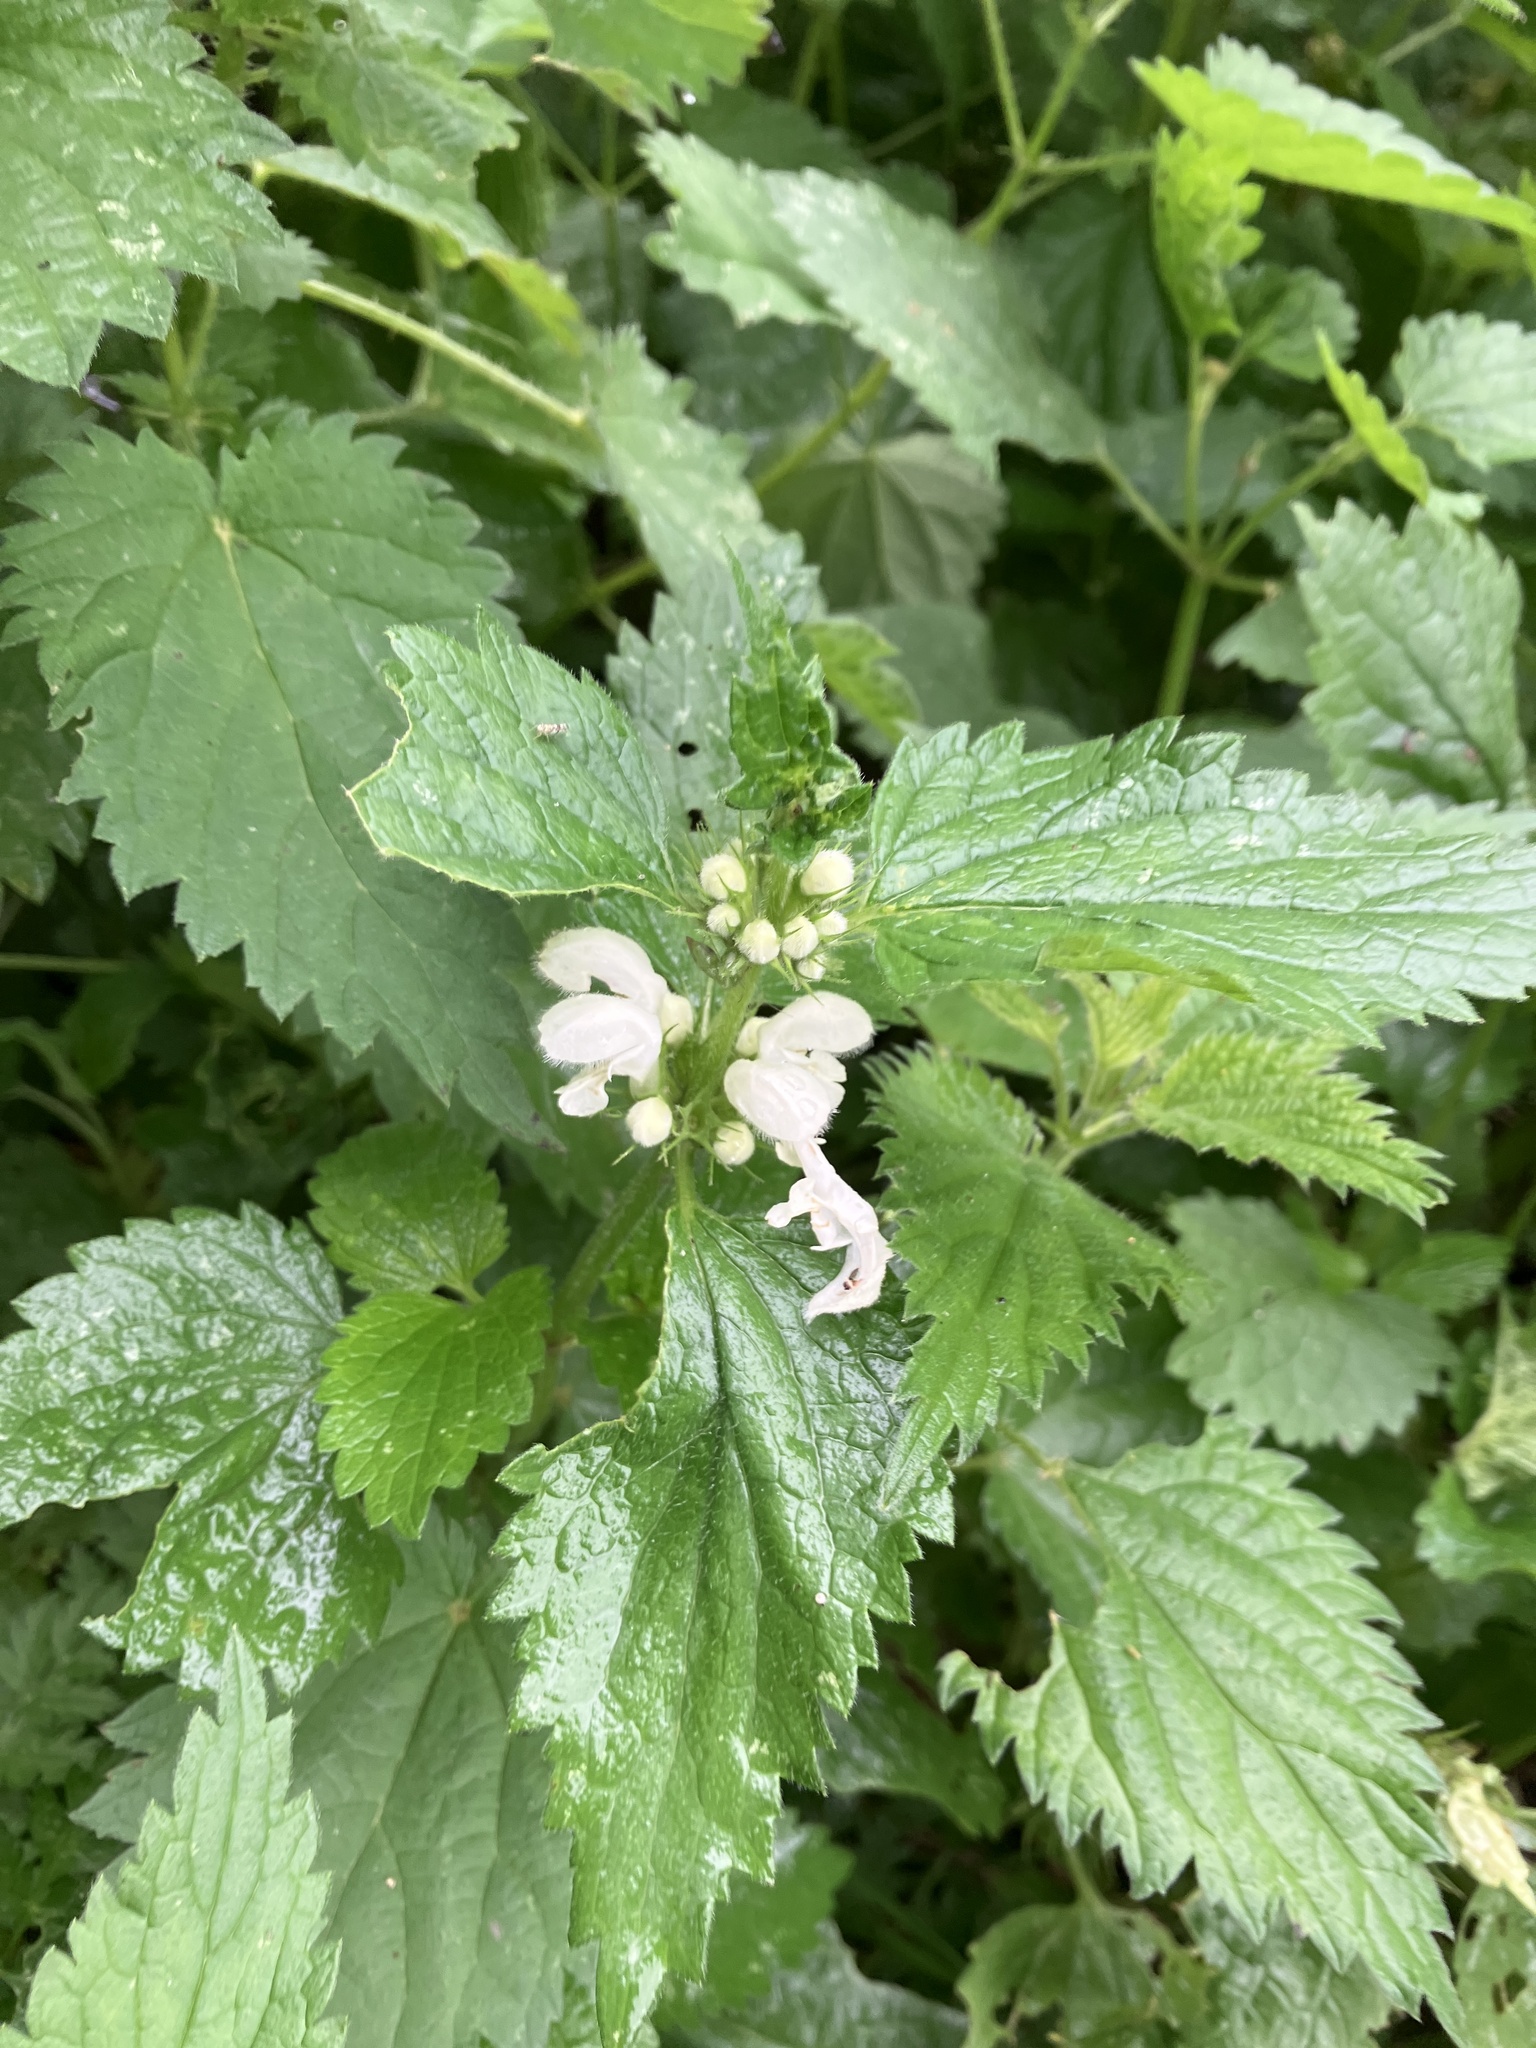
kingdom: Plantae
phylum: Tracheophyta
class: Magnoliopsida
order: Lamiales
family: Lamiaceae
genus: Lamium
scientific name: Lamium album
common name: White dead-nettle
